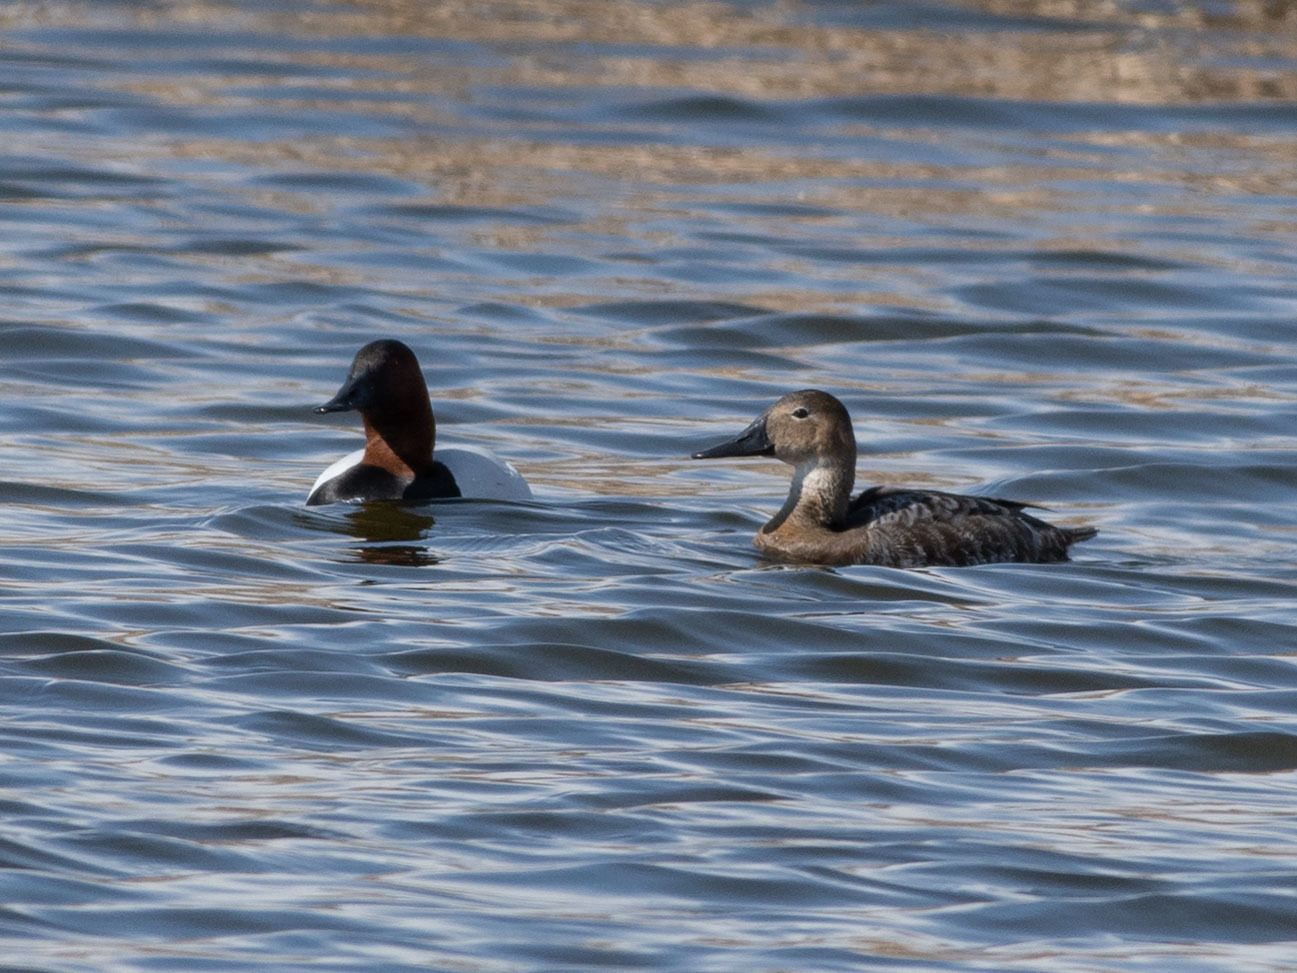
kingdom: Animalia
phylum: Chordata
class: Aves
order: Anseriformes
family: Anatidae
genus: Aythya
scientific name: Aythya valisineria
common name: Canvasback
